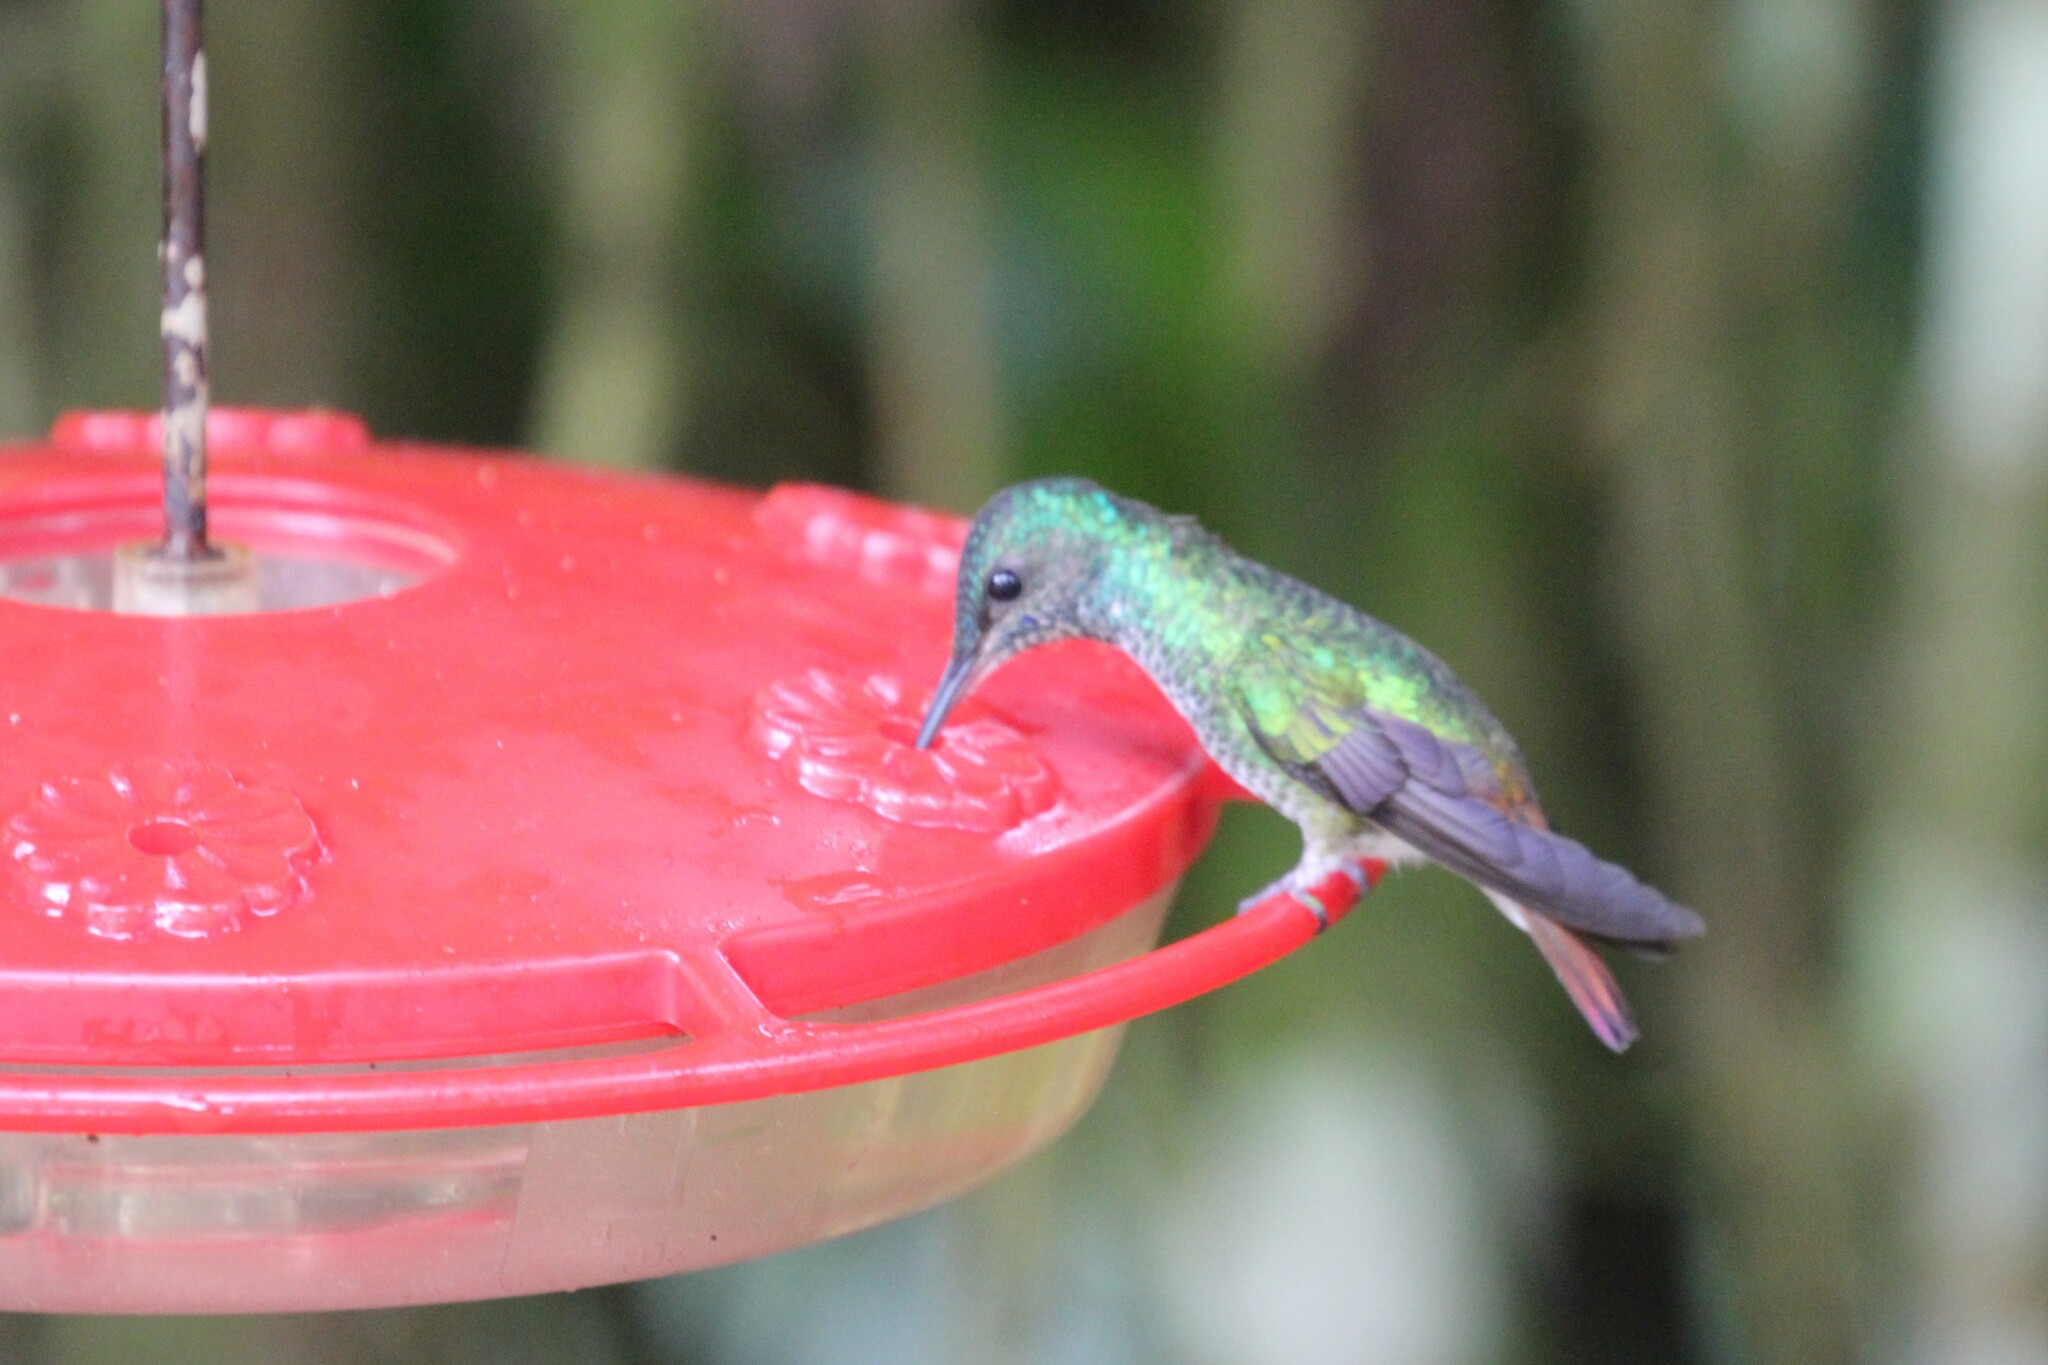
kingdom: Animalia
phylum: Chordata
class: Aves
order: Apodiformes
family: Trochilidae
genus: Chrysuronia
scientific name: Chrysuronia oenone
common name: Golden-tailed sapphire
